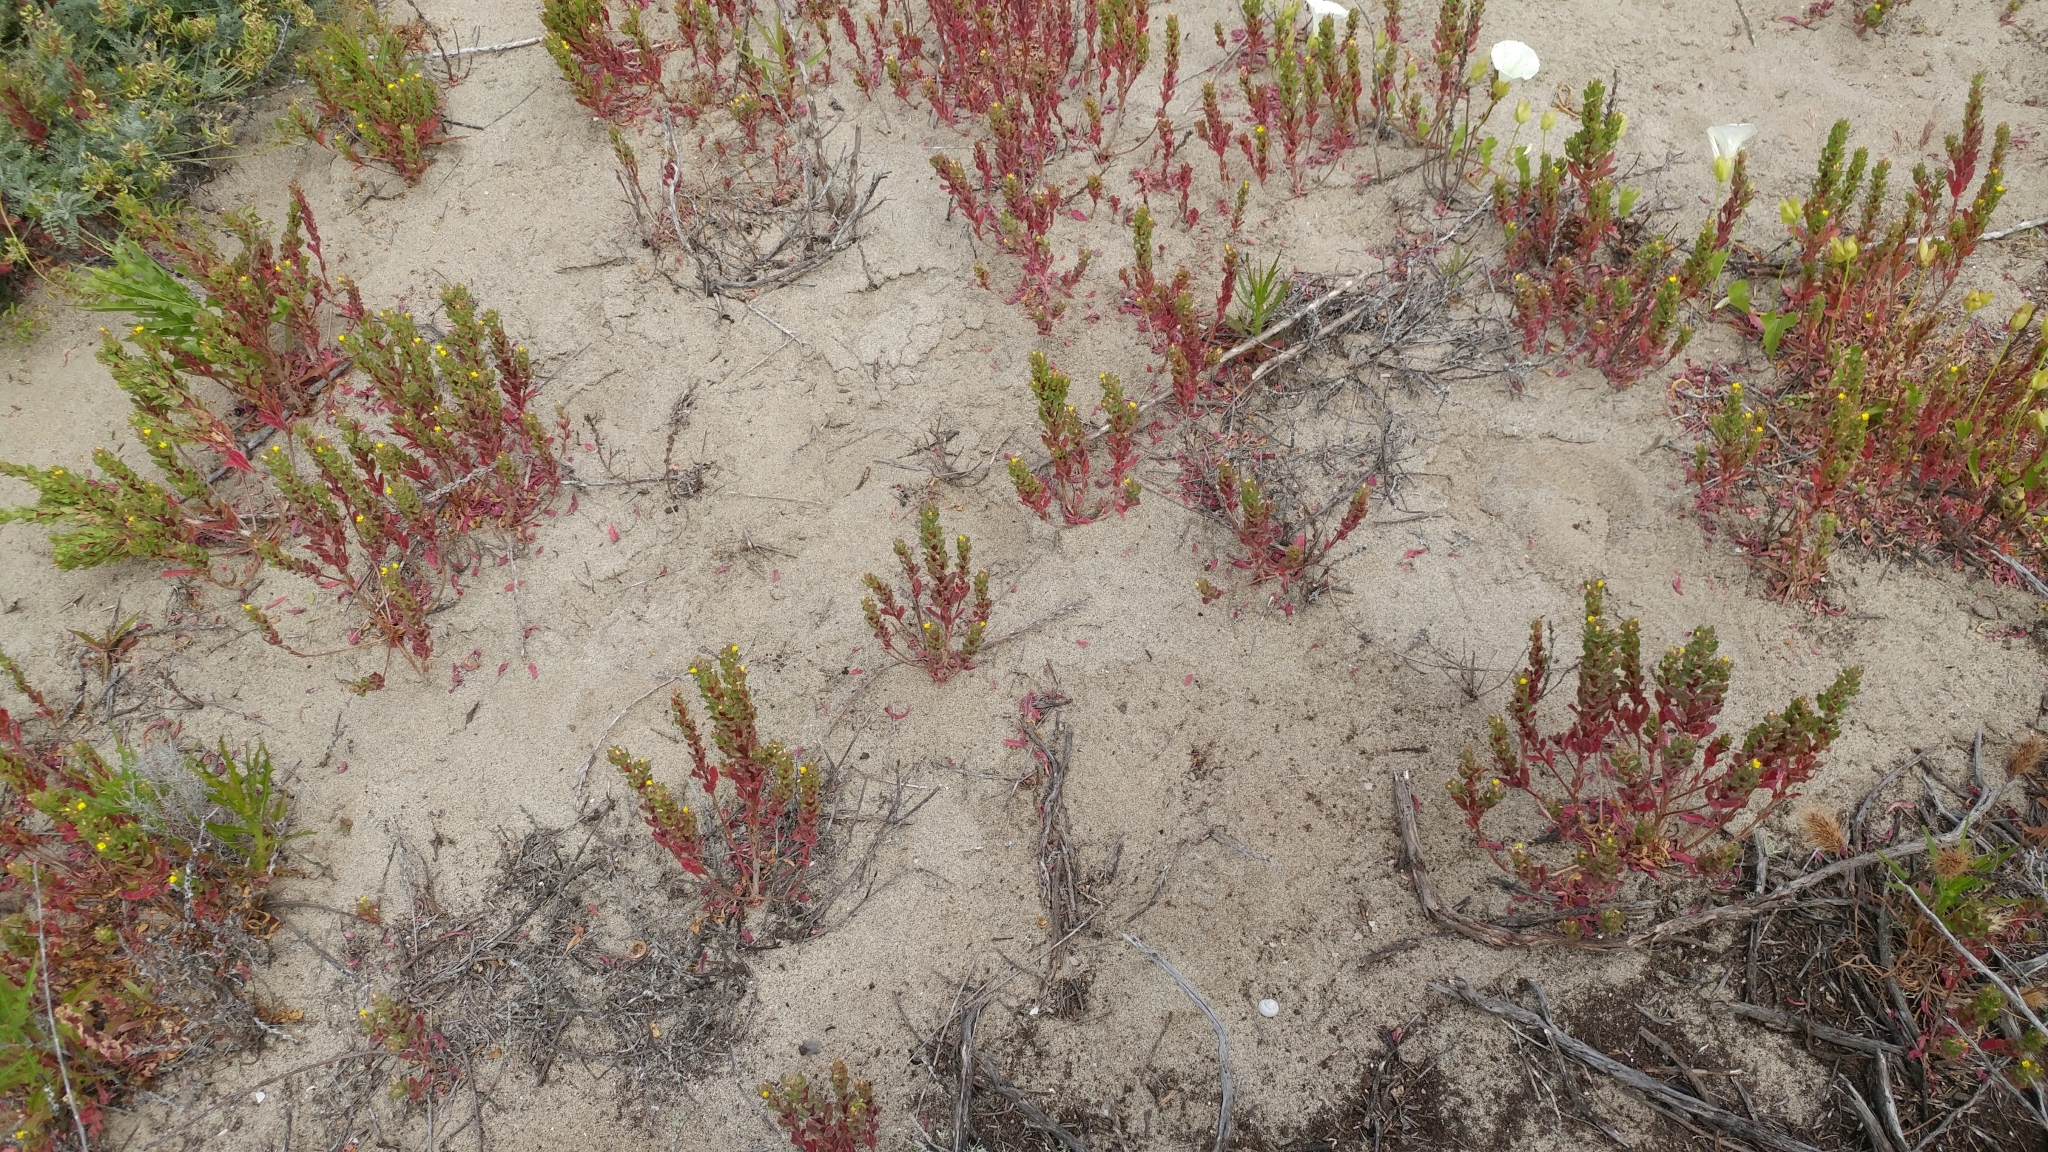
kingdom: Plantae
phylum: Tracheophyta
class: Magnoliopsida
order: Myrtales
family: Onagraceae
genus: Camissoniopsis
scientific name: Camissoniopsis guadalupensis
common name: Guadalupe suncup
